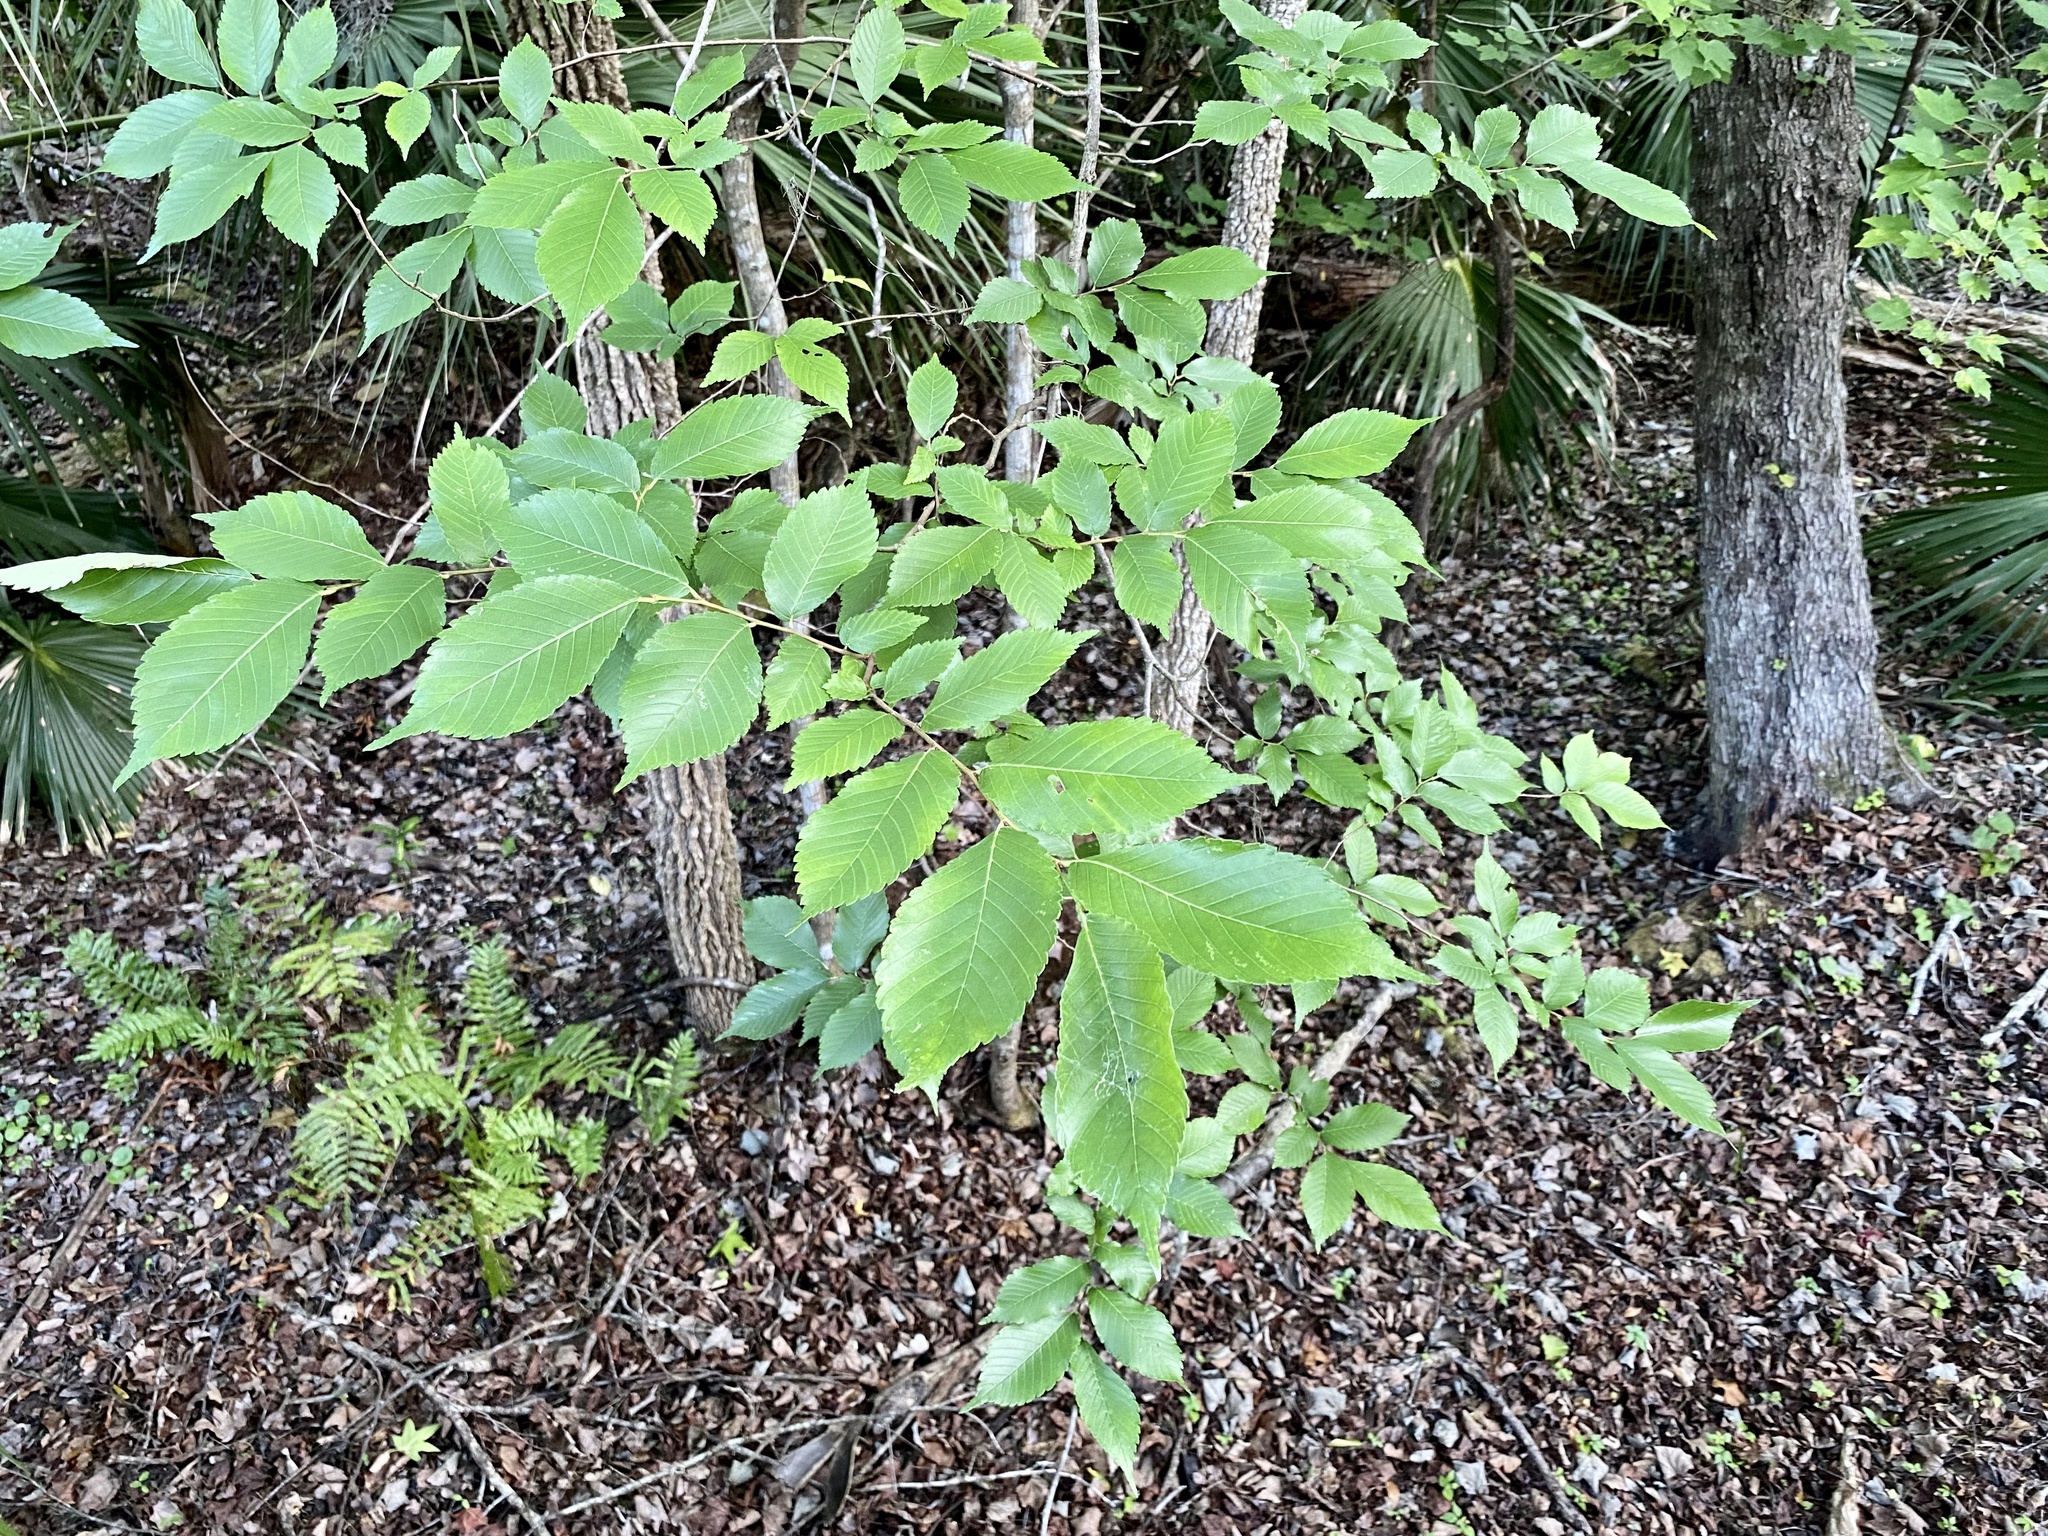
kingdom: Plantae
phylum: Tracheophyta
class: Magnoliopsida
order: Rosales
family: Ulmaceae
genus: Ulmus
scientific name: Ulmus americana
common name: American elm
